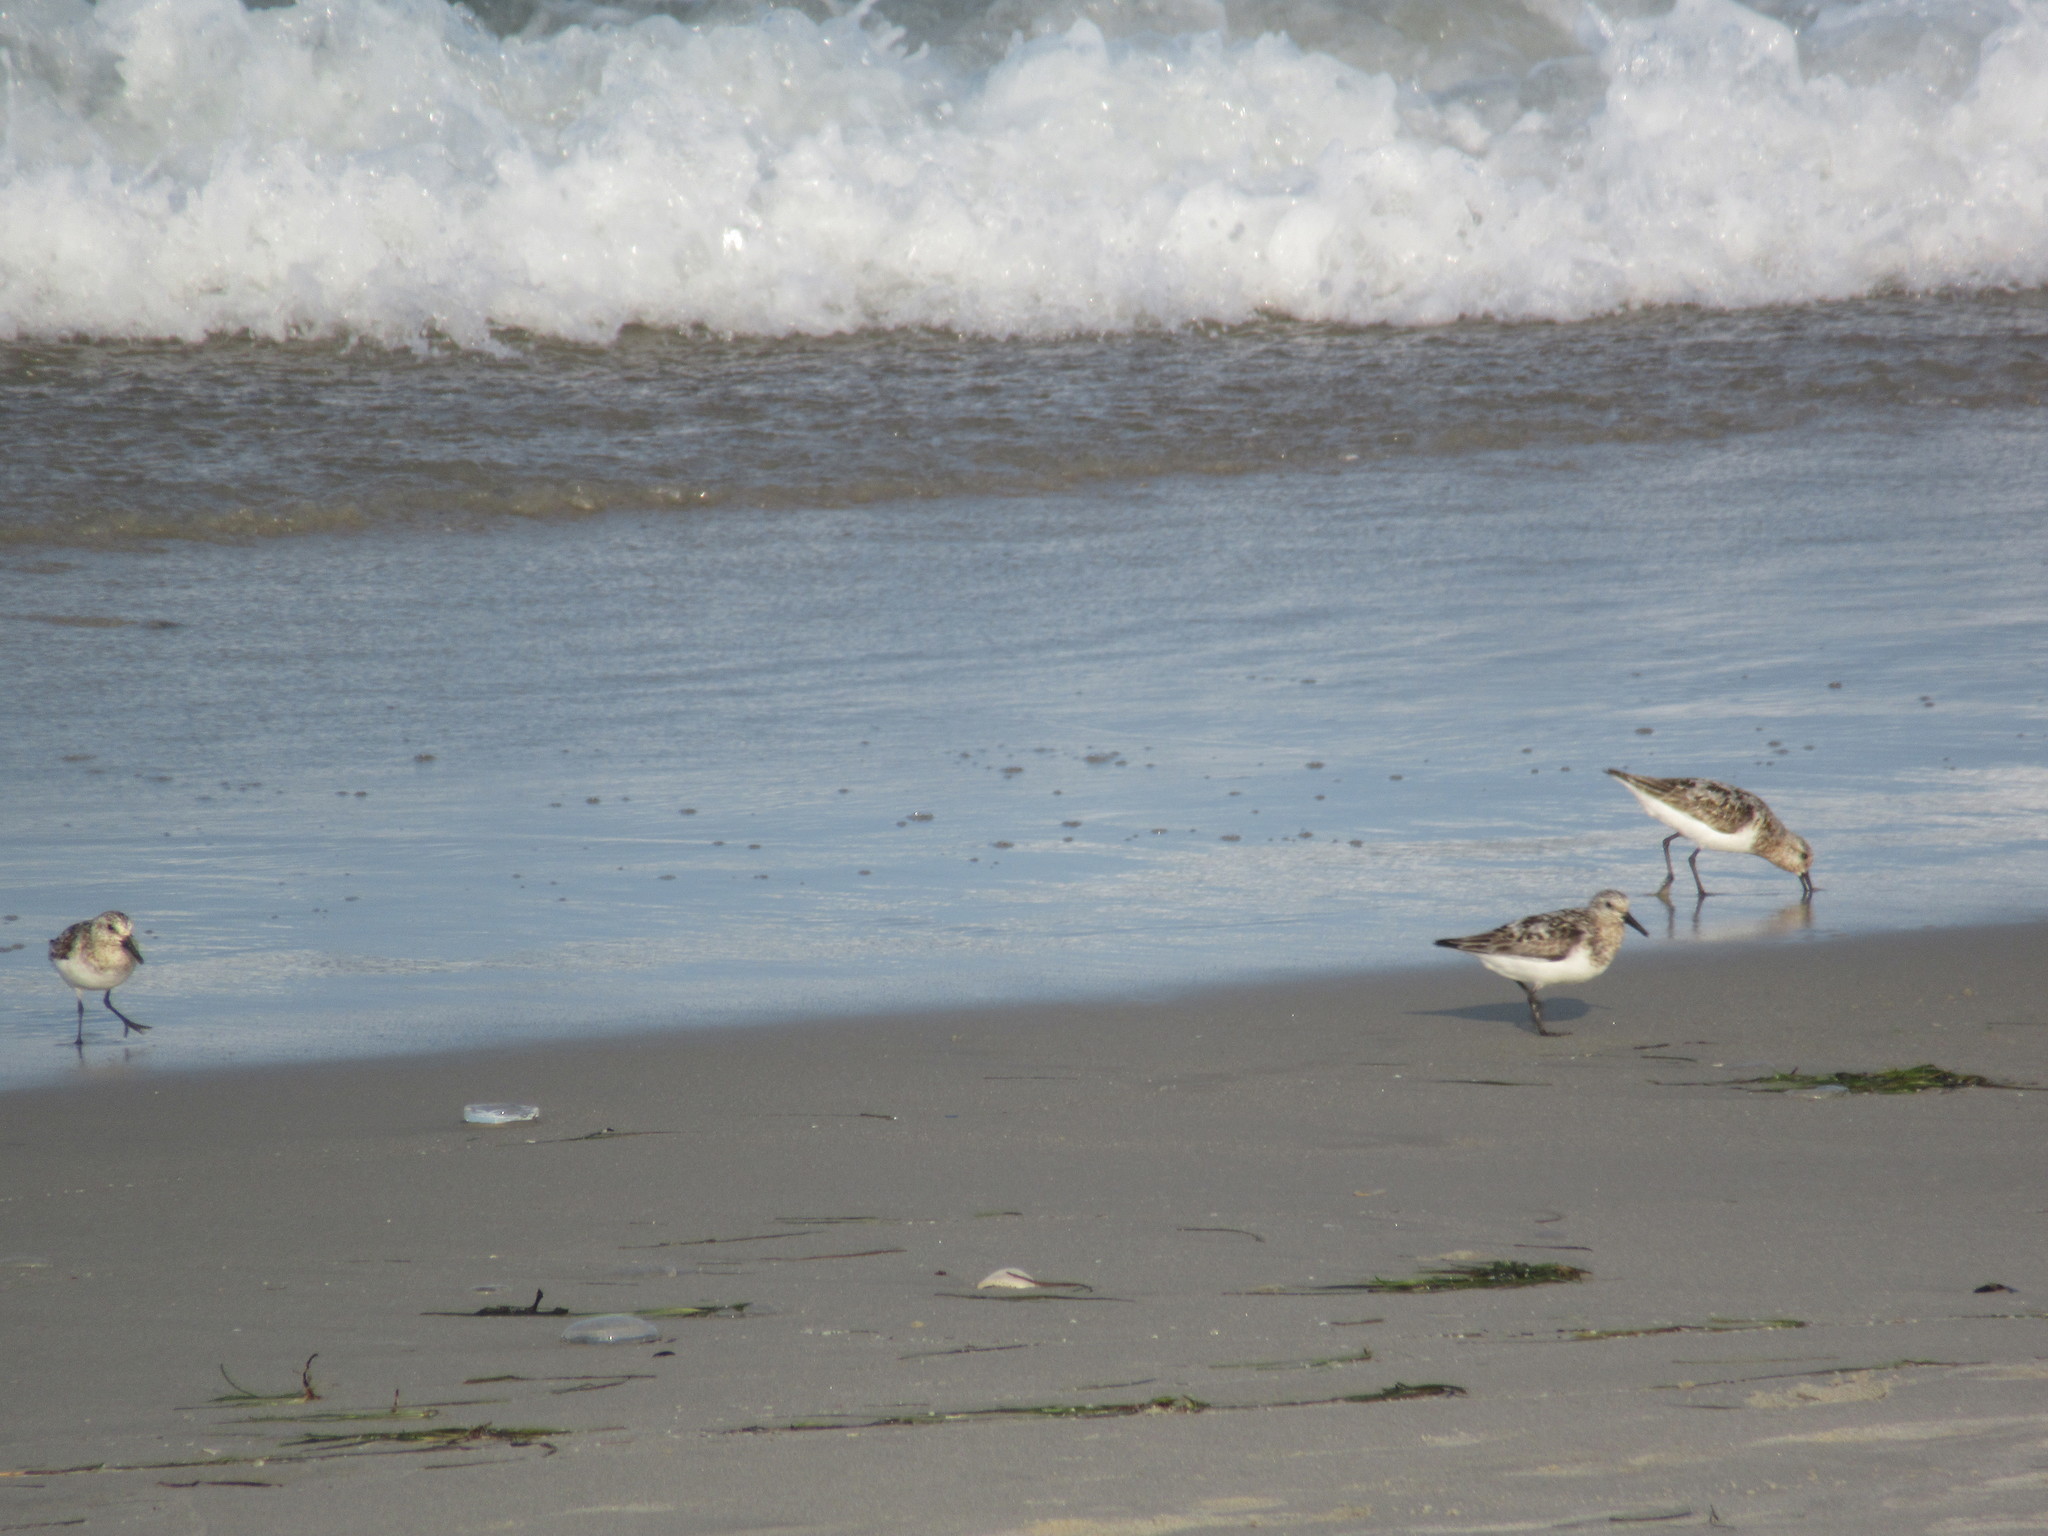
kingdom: Animalia
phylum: Chordata
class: Aves
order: Charadriiformes
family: Scolopacidae
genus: Calidris
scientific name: Calidris alba
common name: Sanderling
